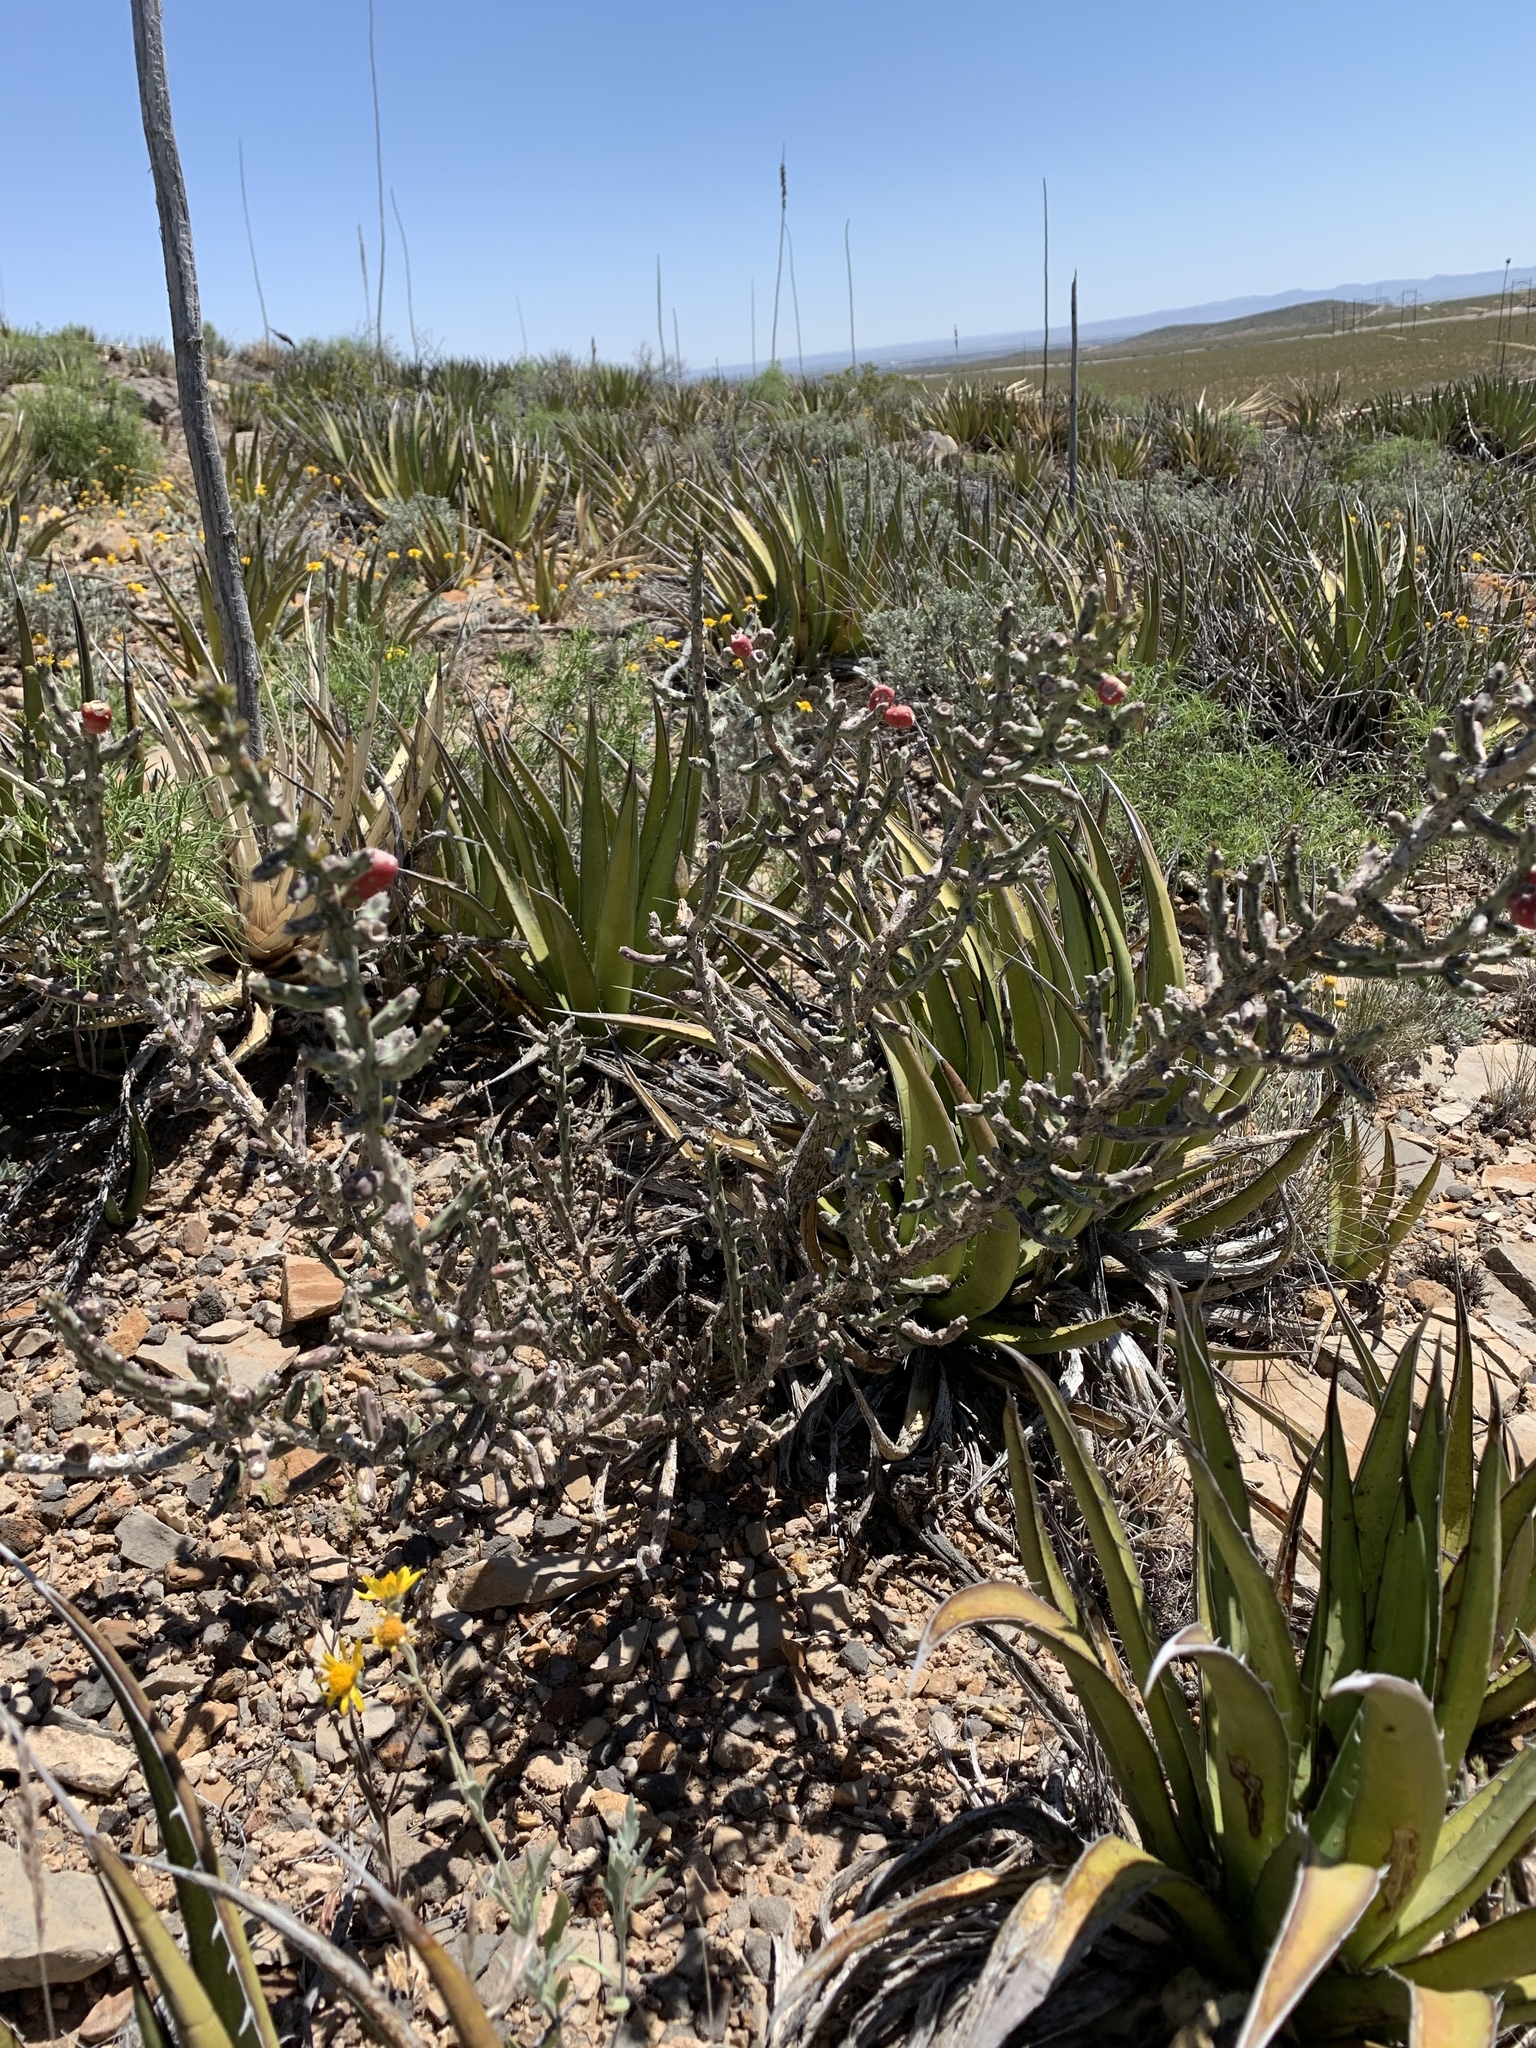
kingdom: Plantae
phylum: Tracheophyta
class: Magnoliopsida
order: Caryophyllales
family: Cactaceae
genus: Cylindropuntia
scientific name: Cylindropuntia leptocaulis
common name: Christmas cactus
